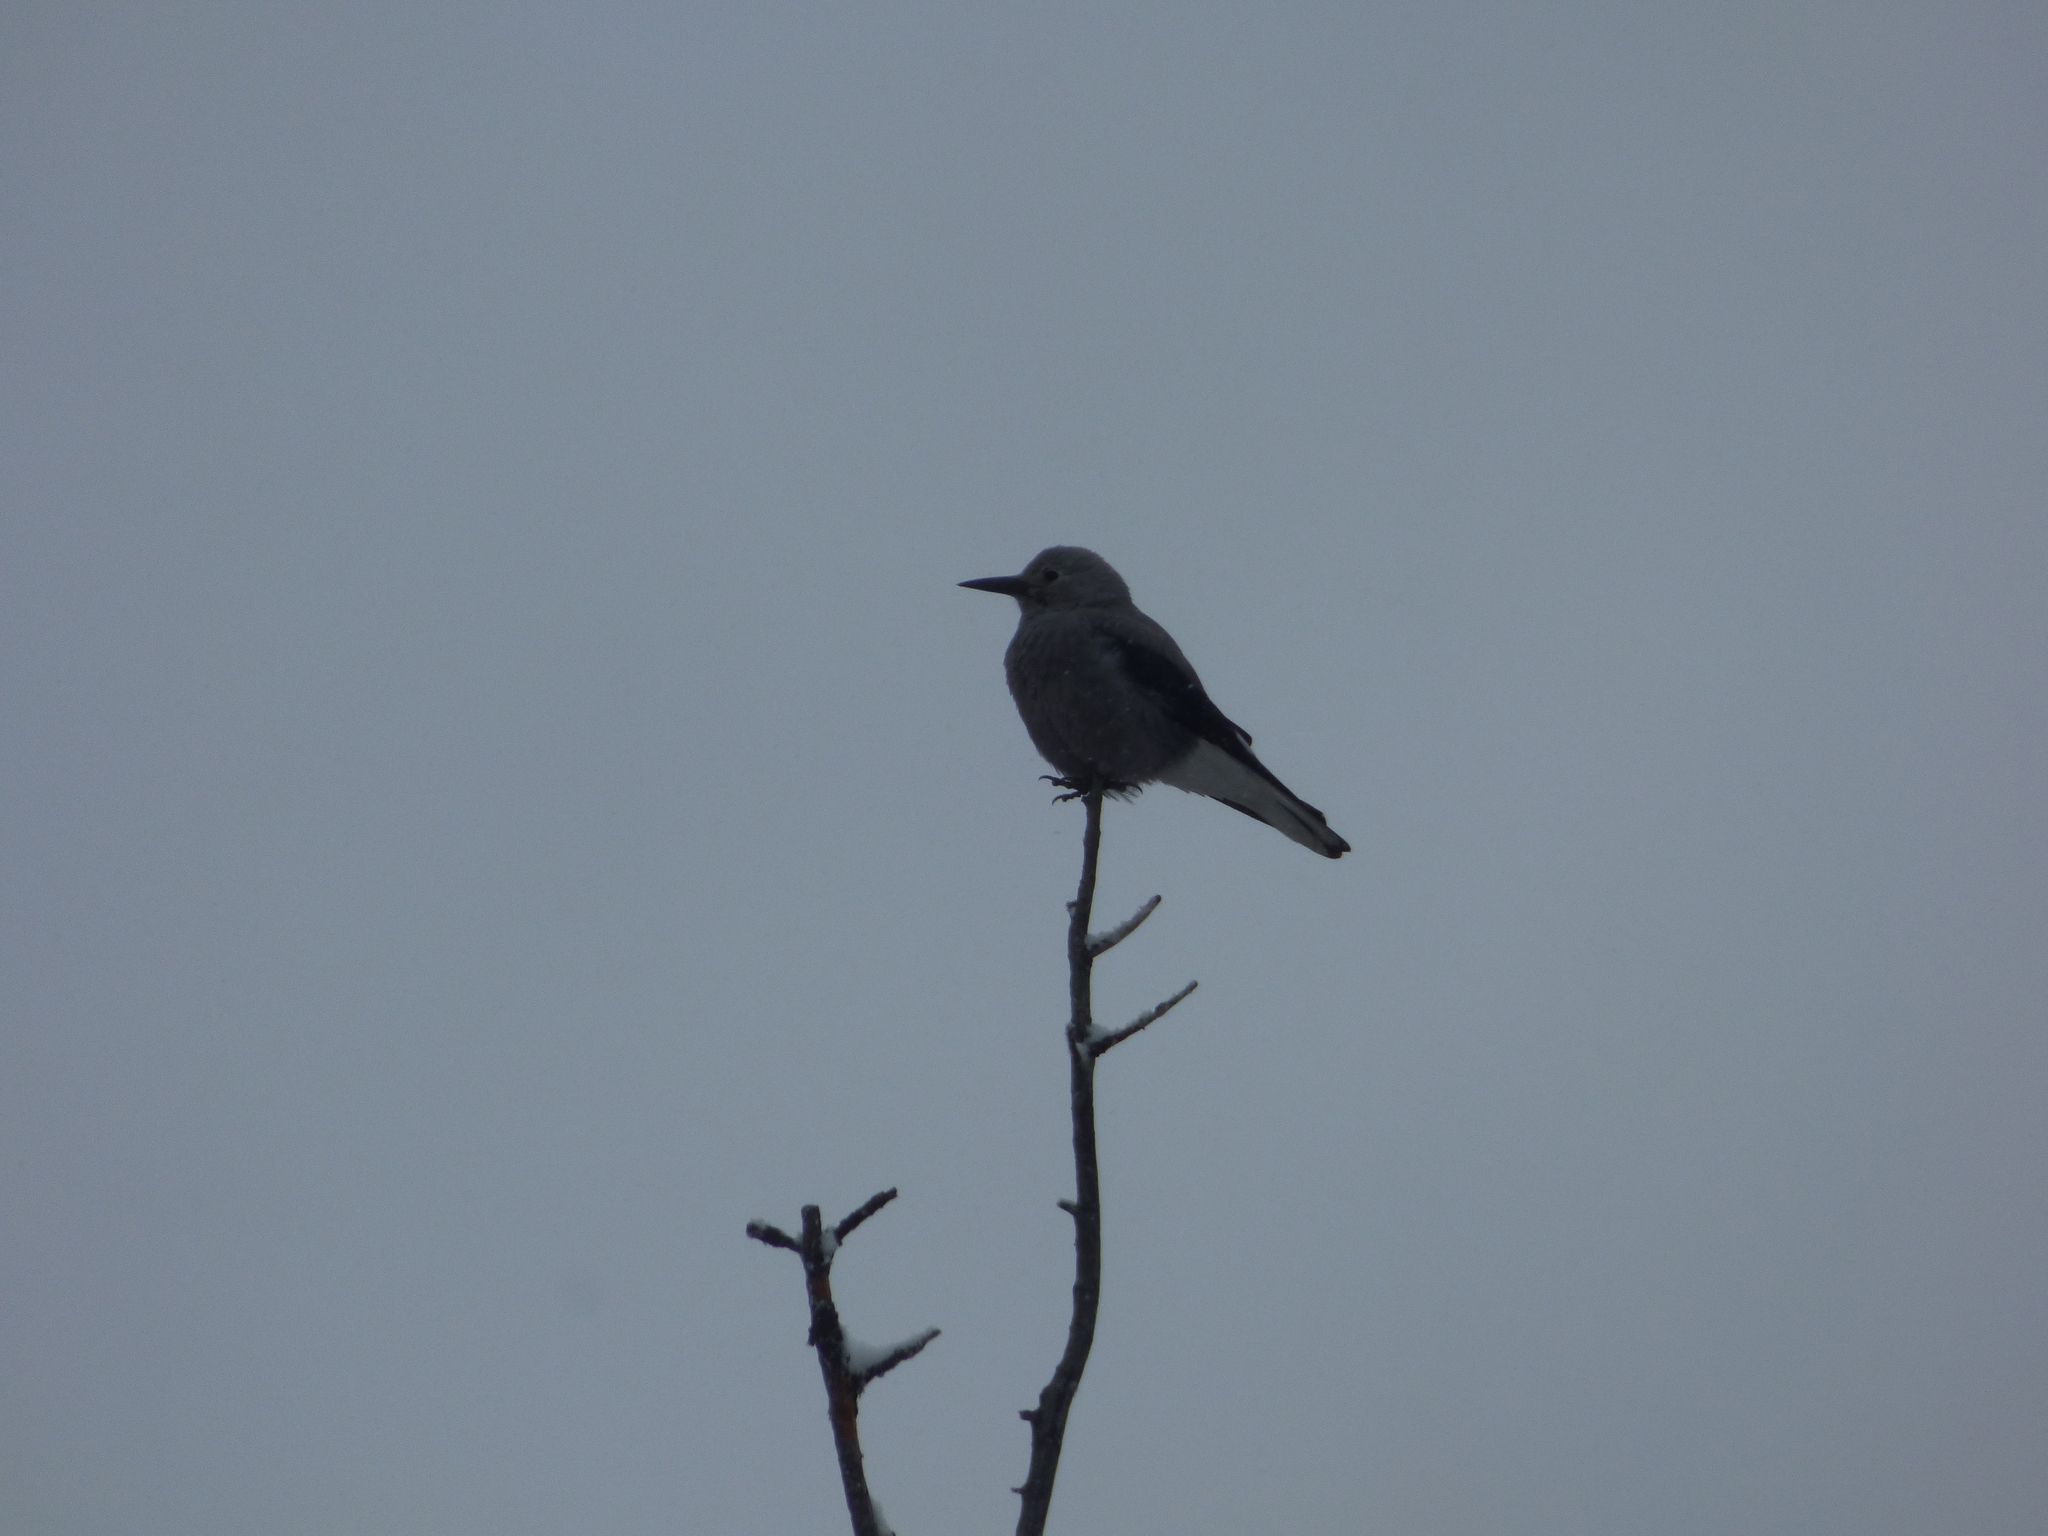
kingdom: Animalia
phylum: Chordata
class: Aves
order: Passeriformes
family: Corvidae
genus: Nucifraga
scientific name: Nucifraga columbiana
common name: Clark's nutcracker
